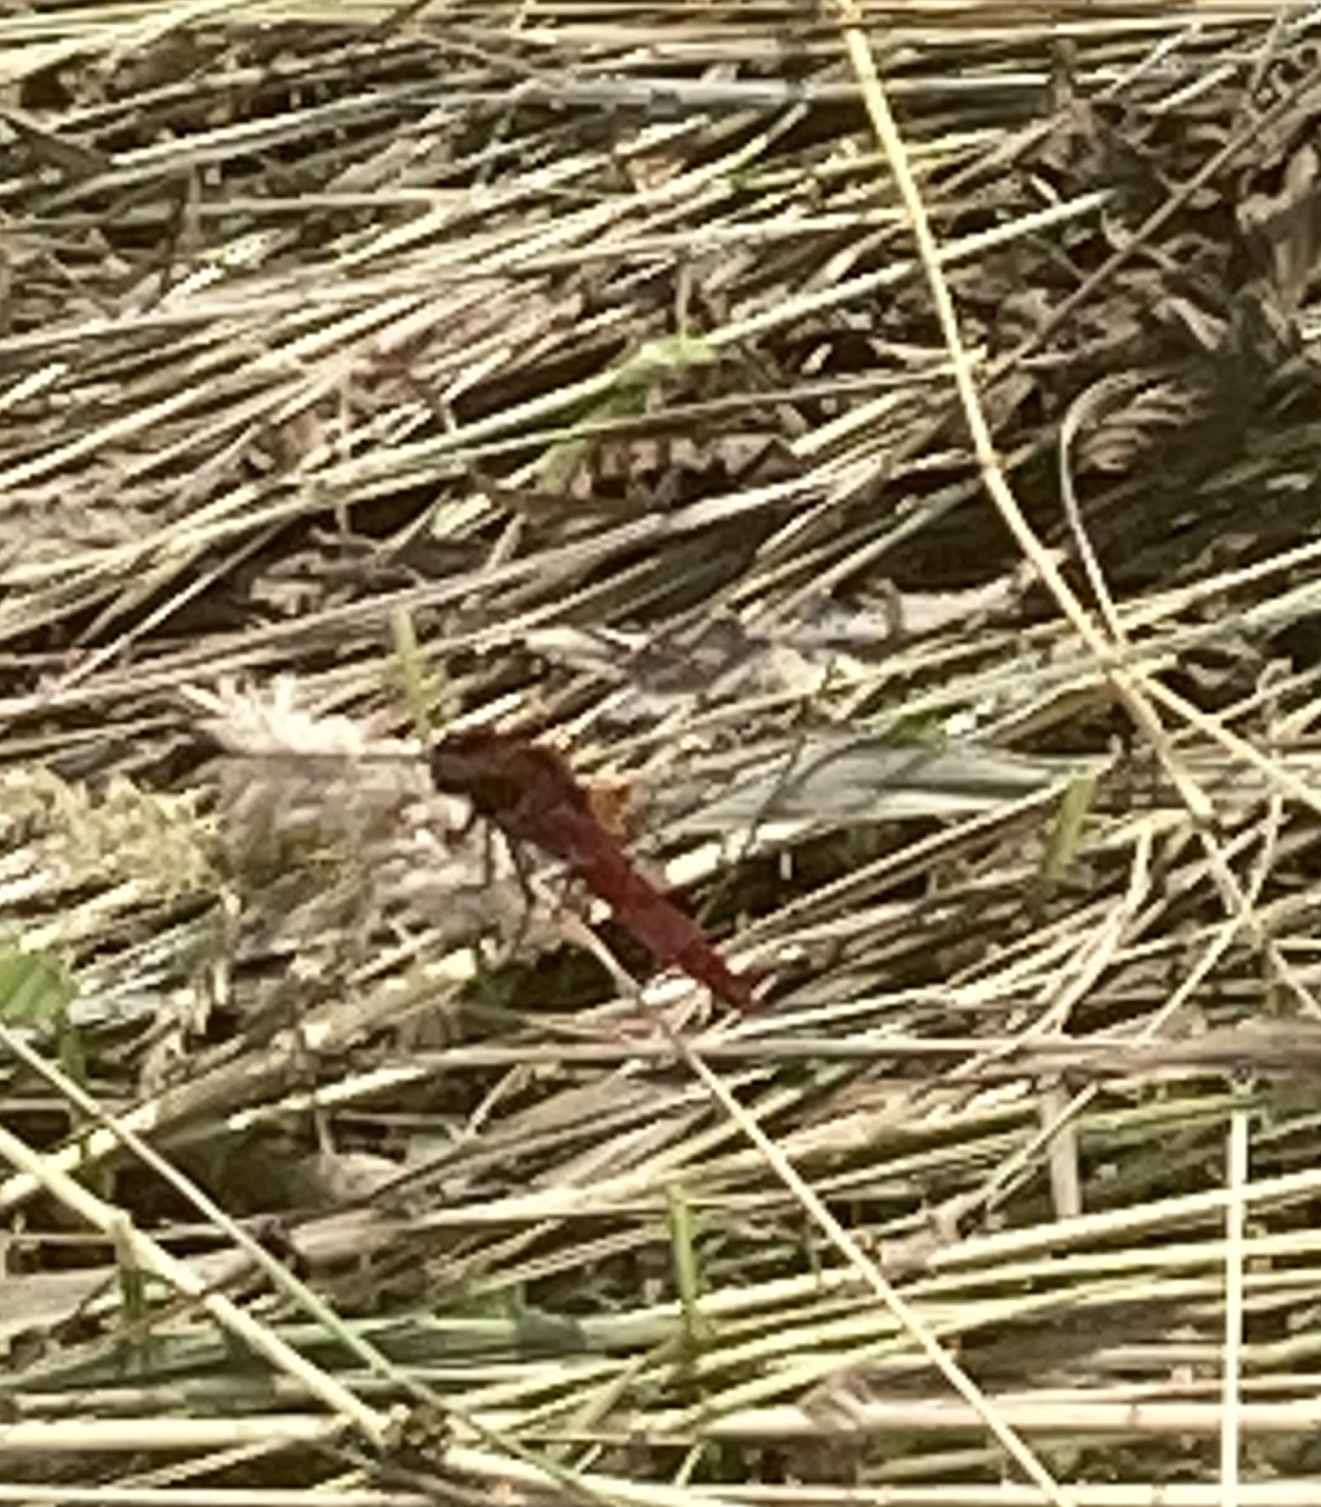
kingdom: Animalia
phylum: Arthropoda
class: Insecta
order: Odonata
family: Libellulidae
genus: Crocothemis
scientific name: Crocothemis erythraea
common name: Scarlet dragonfly
